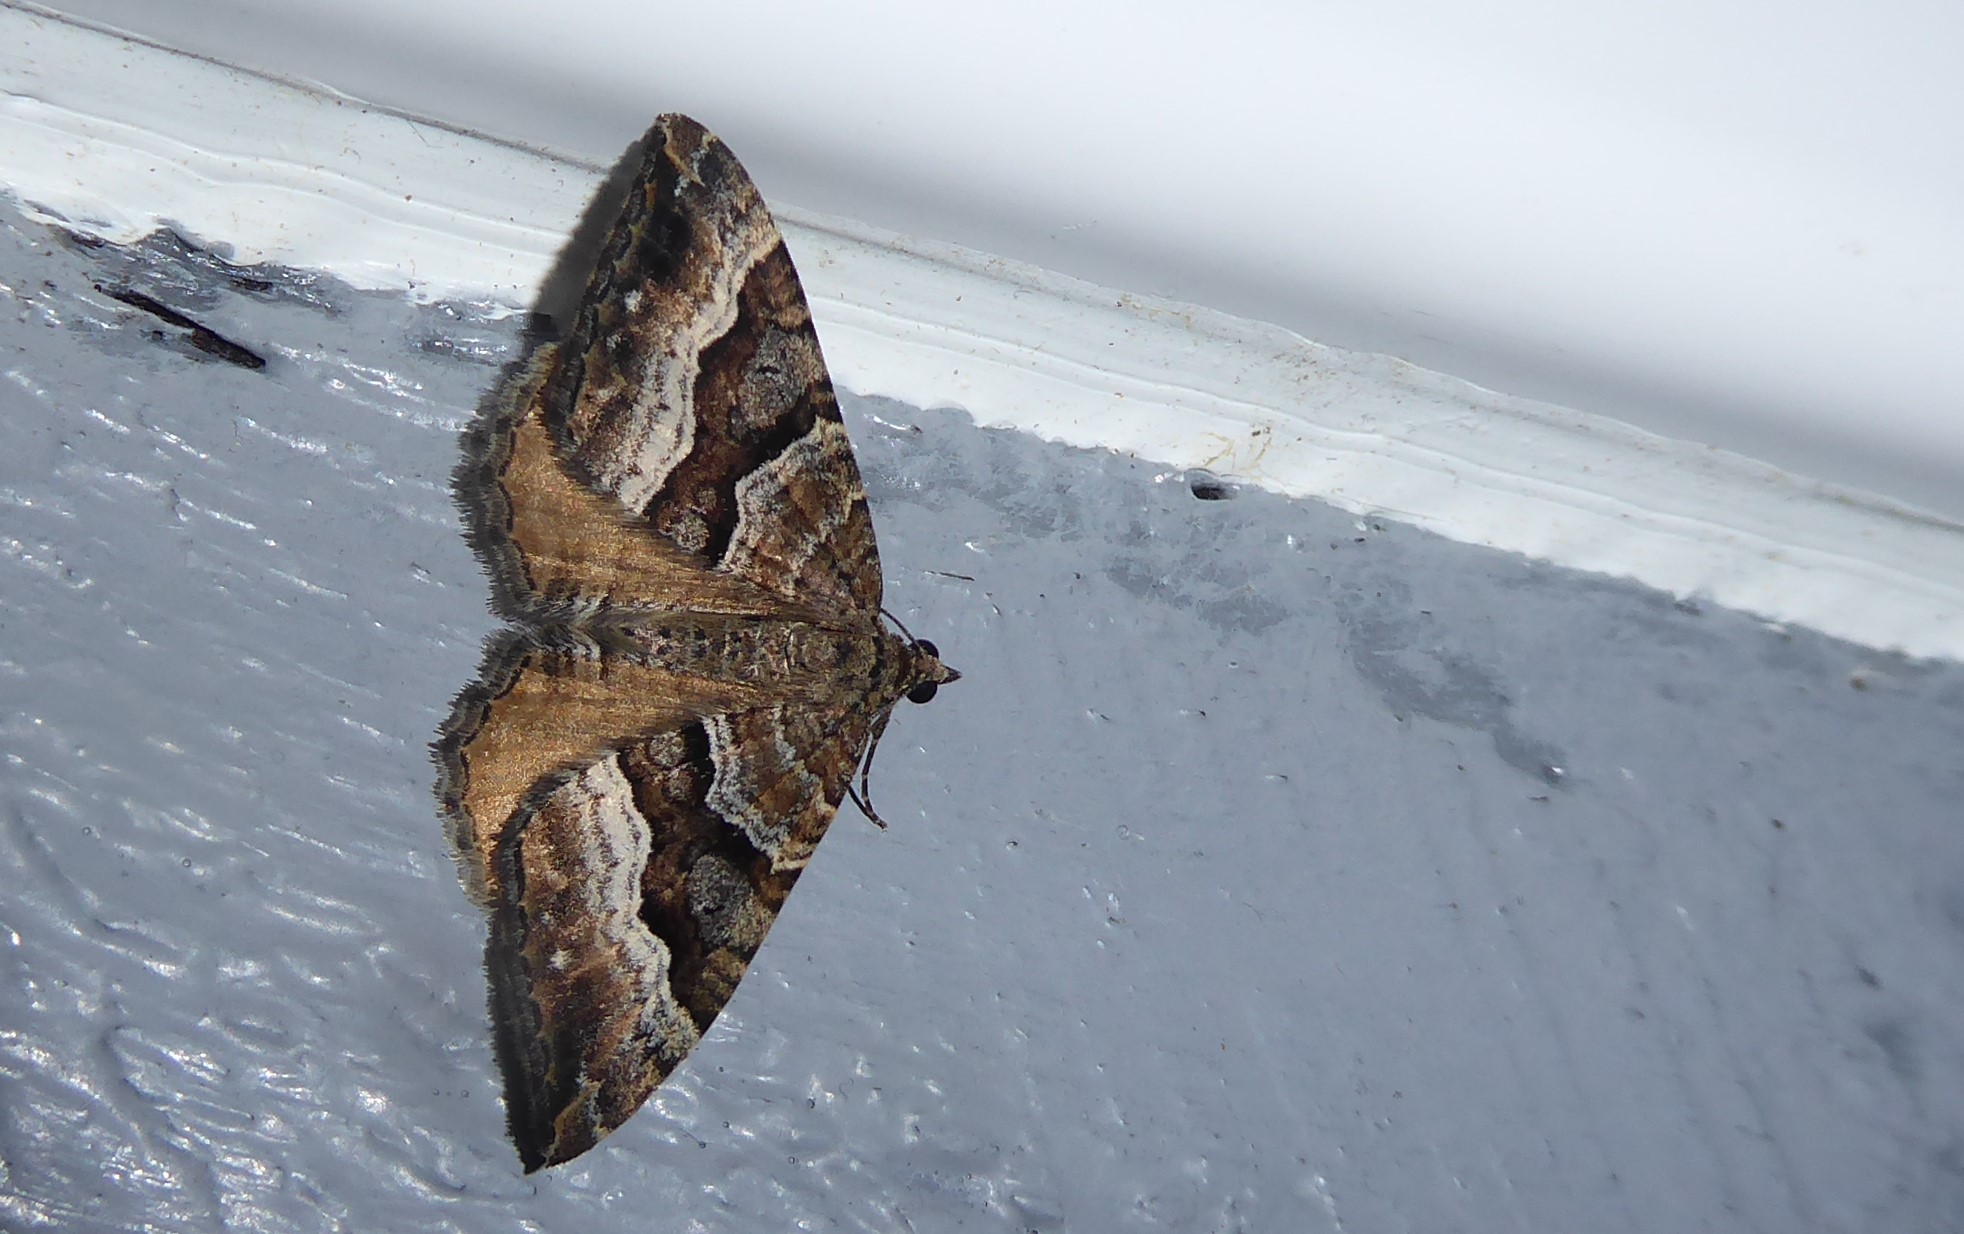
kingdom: Animalia
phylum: Arthropoda
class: Insecta
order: Lepidoptera
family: Geometridae
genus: Hydriomena
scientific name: Hydriomena deltoidata
